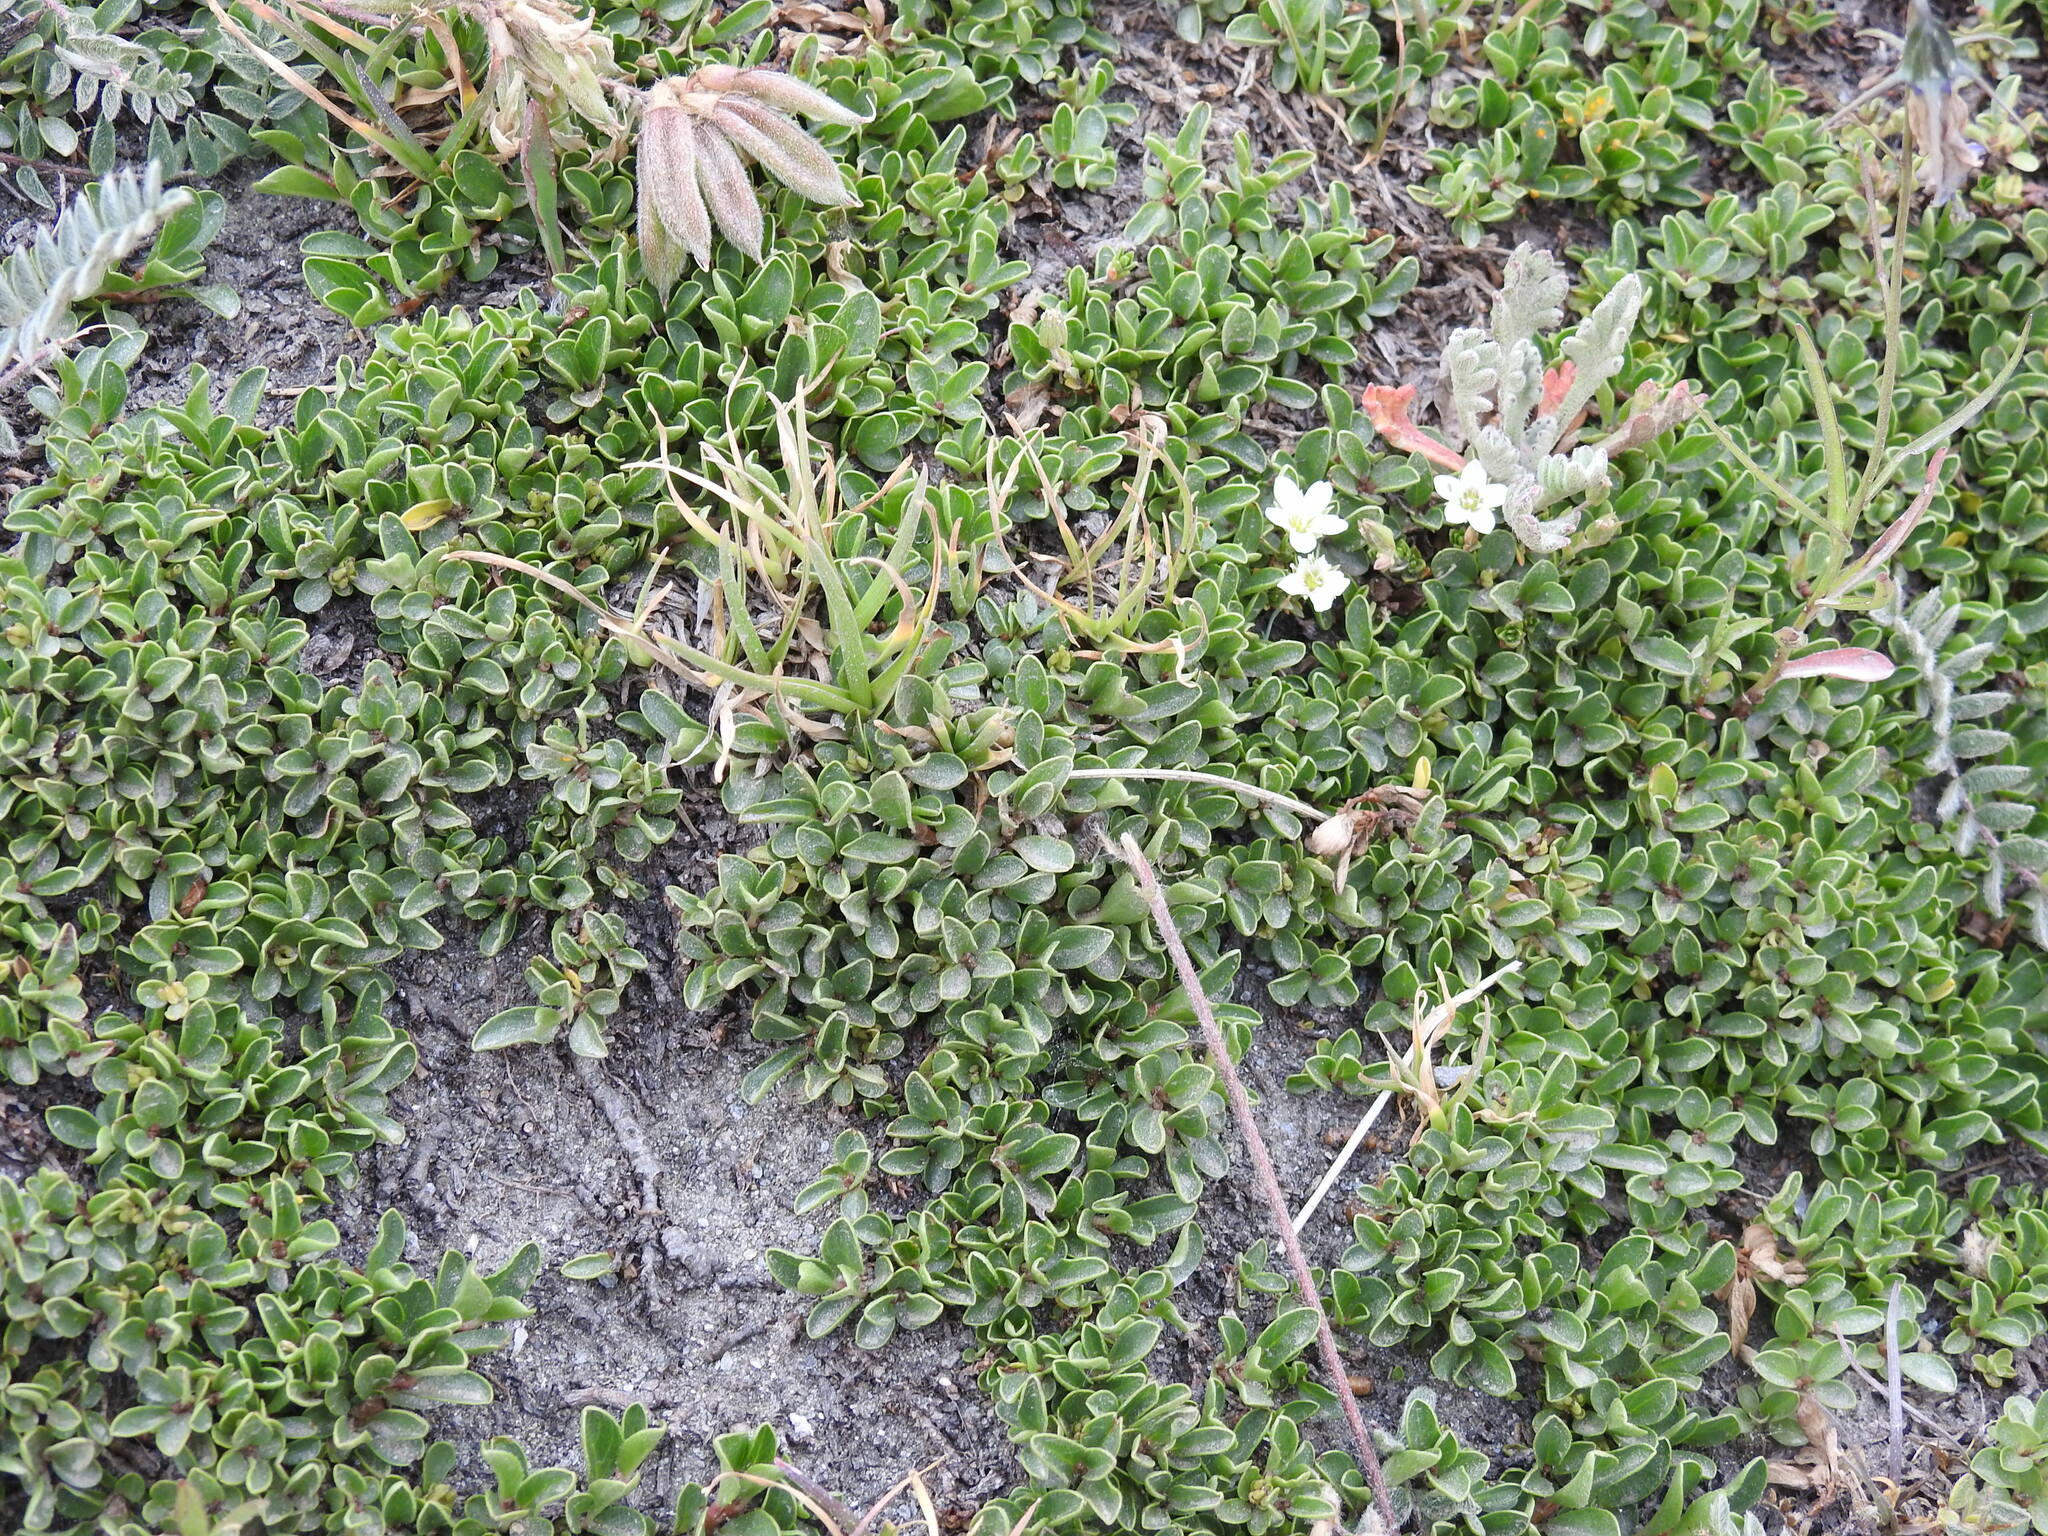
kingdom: Plantae
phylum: Tracheophyta
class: Magnoliopsida
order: Malpighiales
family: Salicaceae
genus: Salix
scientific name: Salix serpillifolia
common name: Thyme-leaf willow
